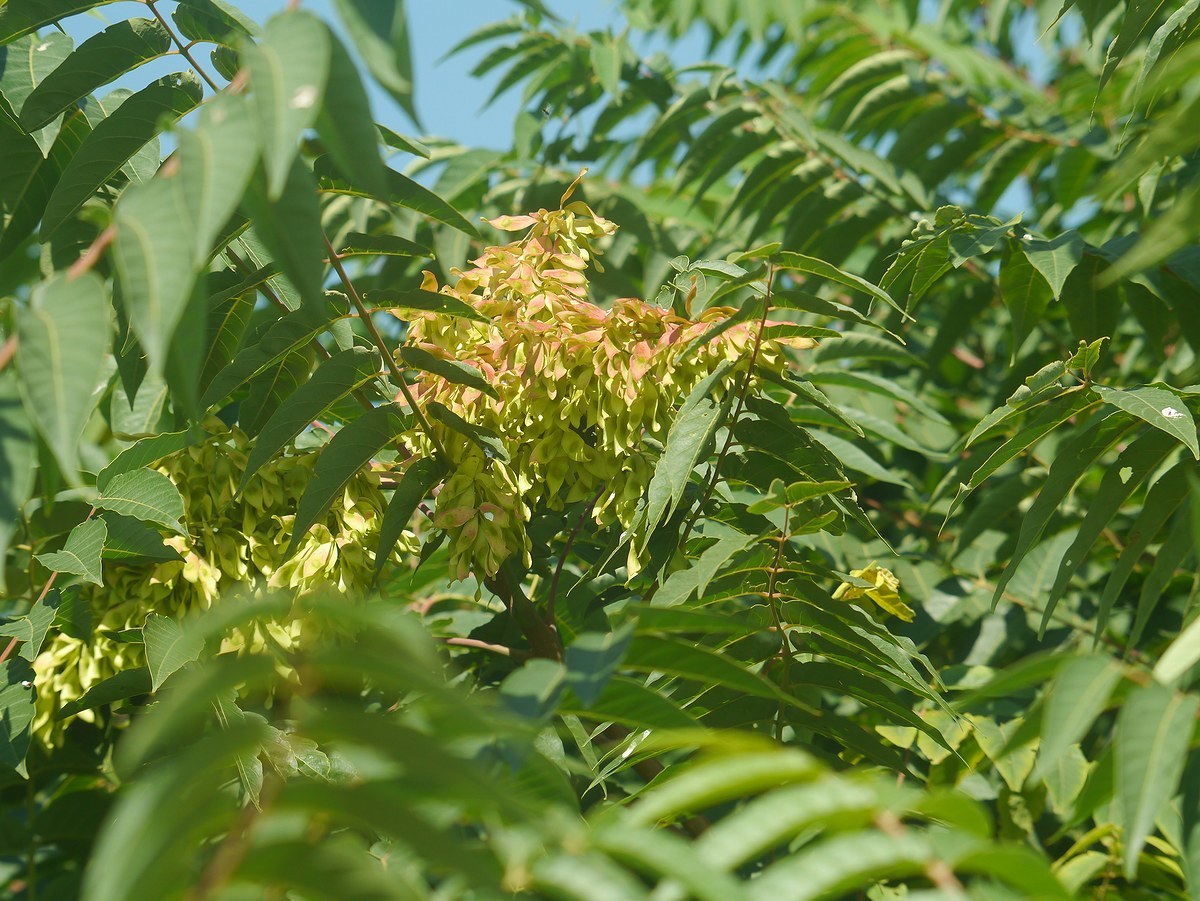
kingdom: Plantae
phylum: Tracheophyta
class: Magnoliopsida
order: Sapindales
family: Simaroubaceae
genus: Ailanthus
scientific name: Ailanthus altissima
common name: Tree-of-heaven
